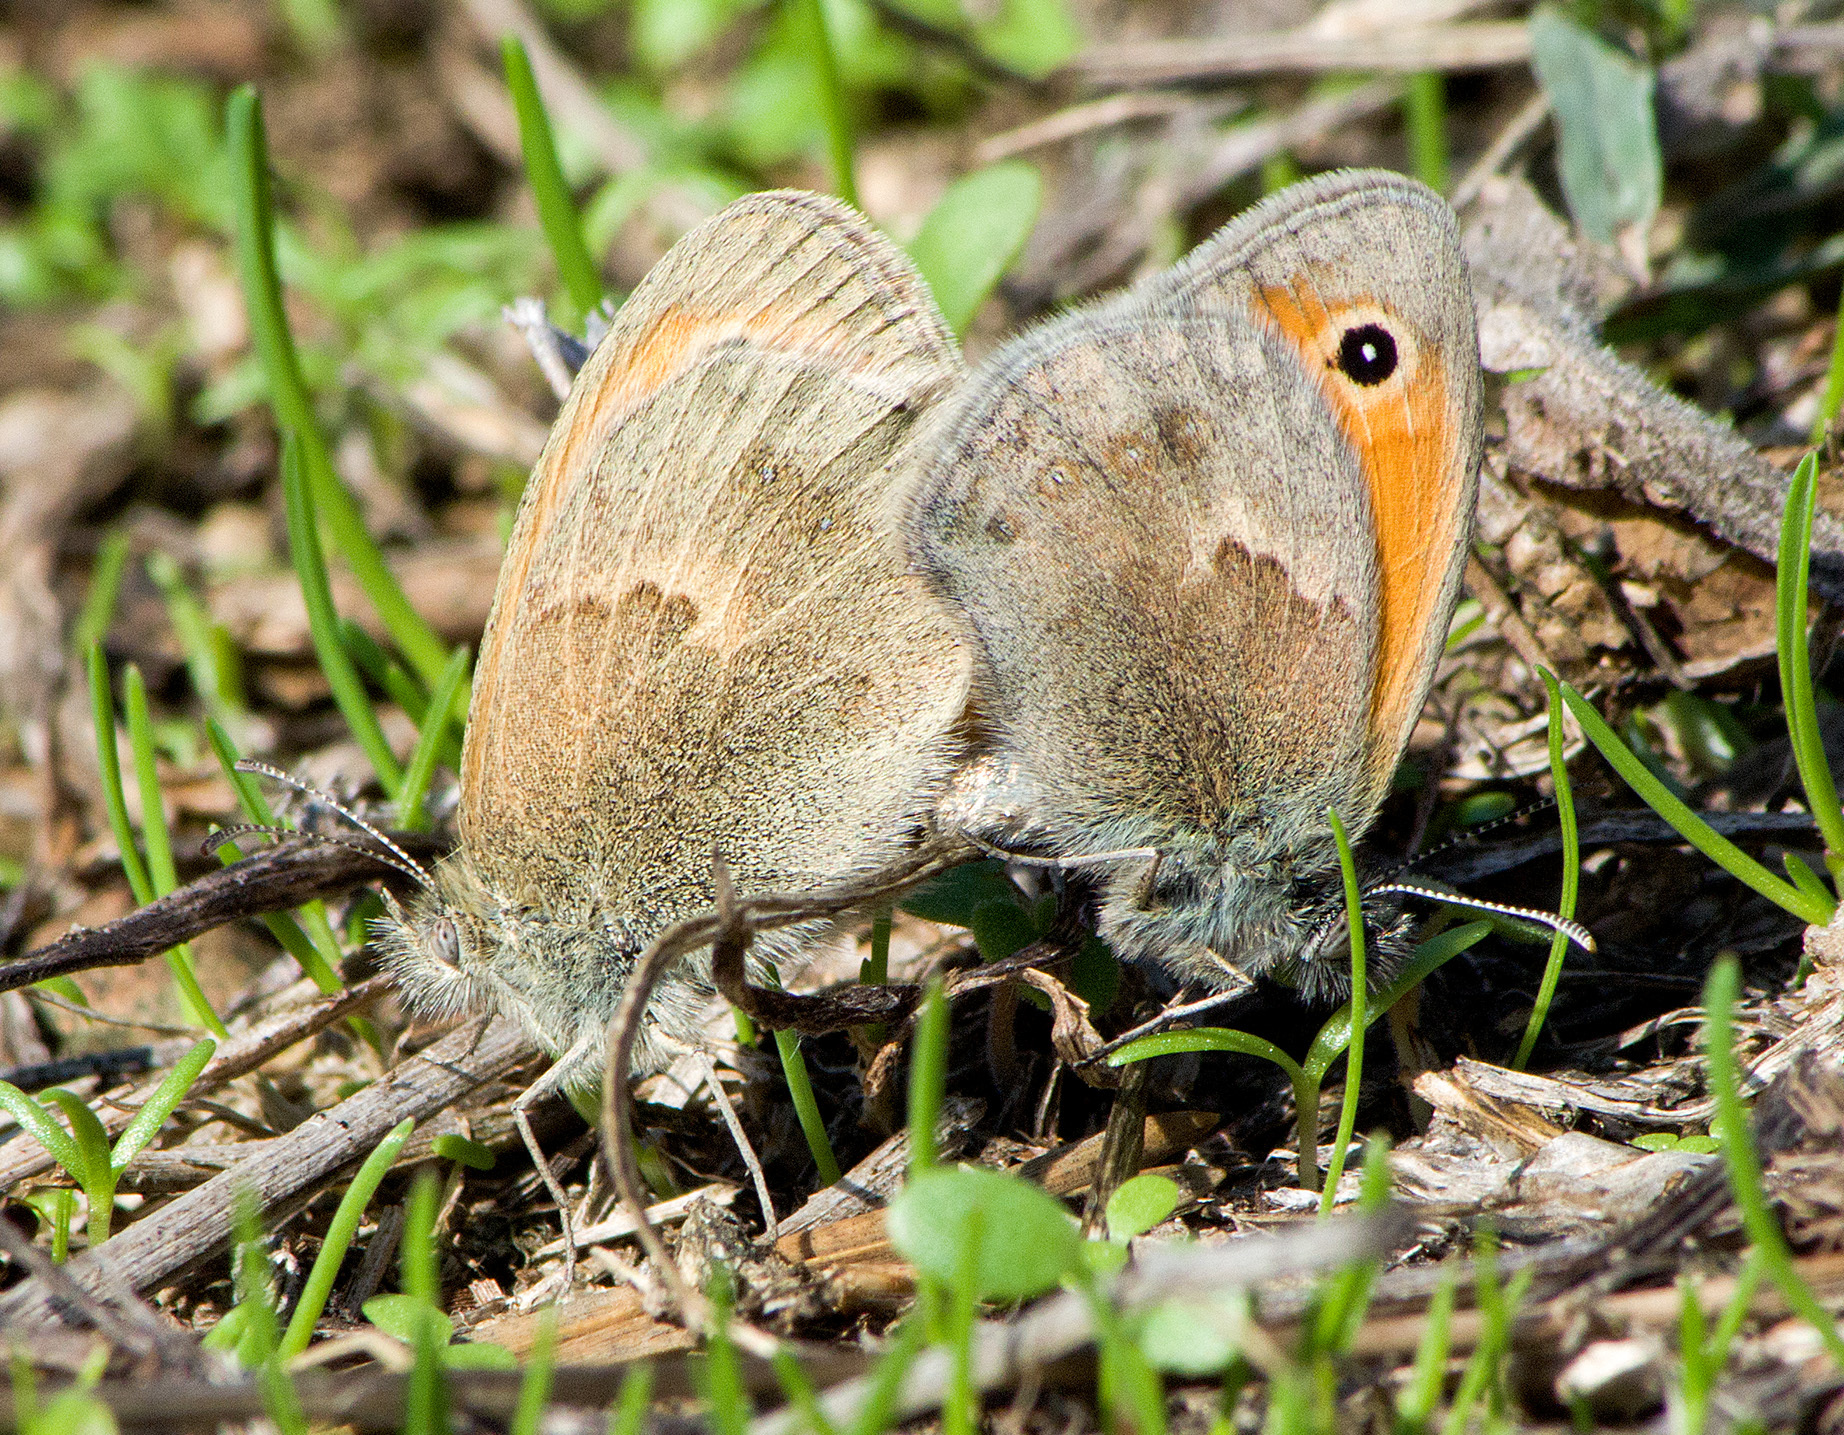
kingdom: Animalia
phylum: Arthropoda
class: Insecta
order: Lepidoptera
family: Nymphalidae
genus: Coenonympha
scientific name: Coenonympha pamphilus
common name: Small heath
